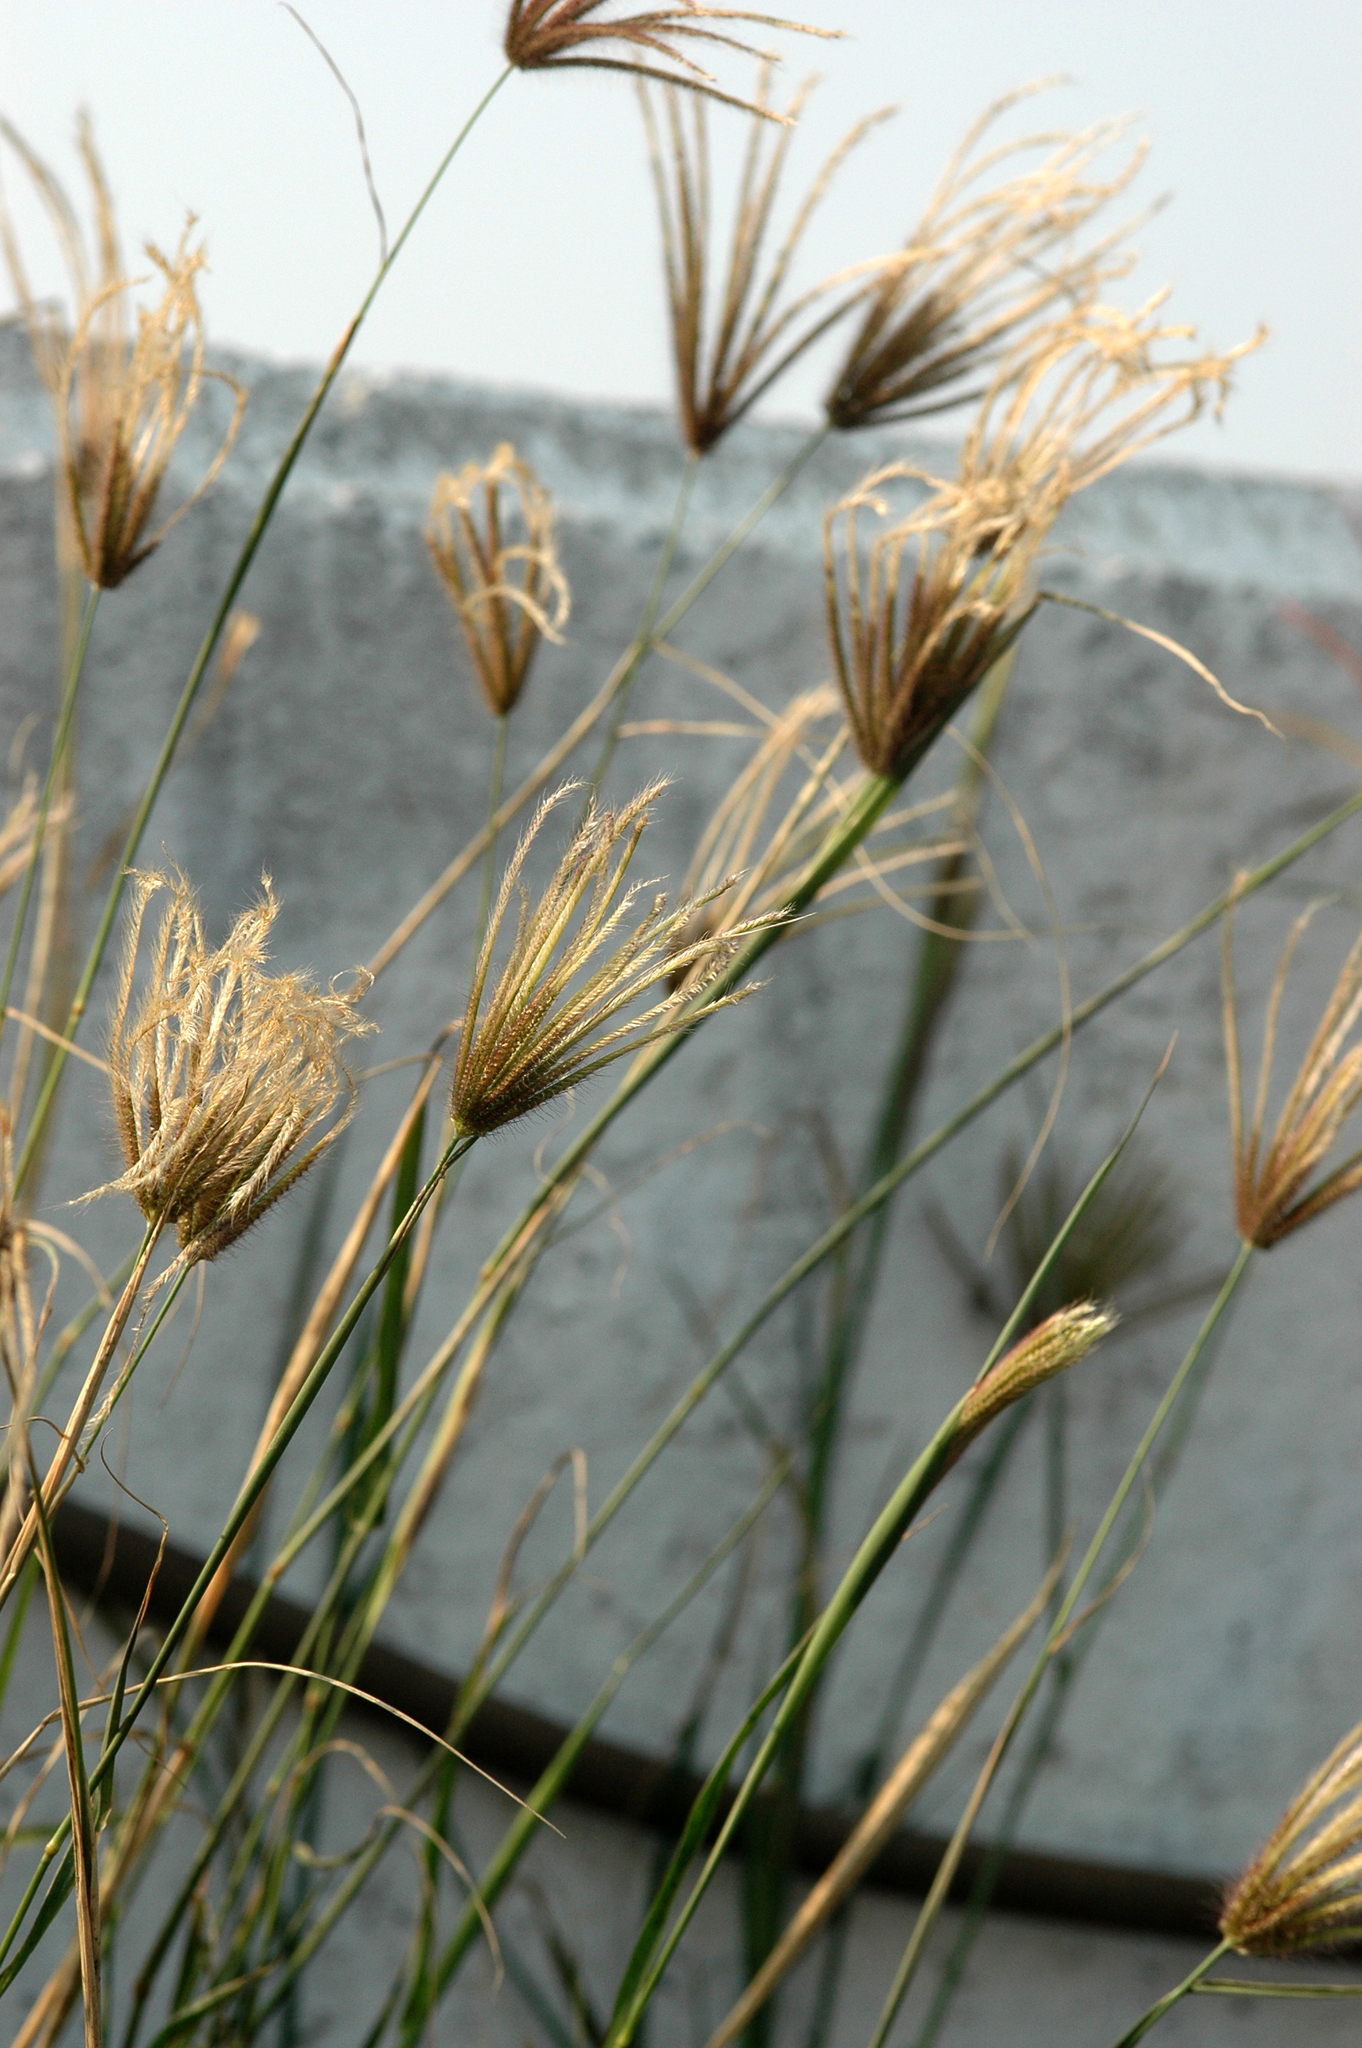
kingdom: Plantae
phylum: Tracheophyta
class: Liliopsida
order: Poales
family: Poaceae
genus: Chloris
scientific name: Chloris barbata
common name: Swollen fingergrass
